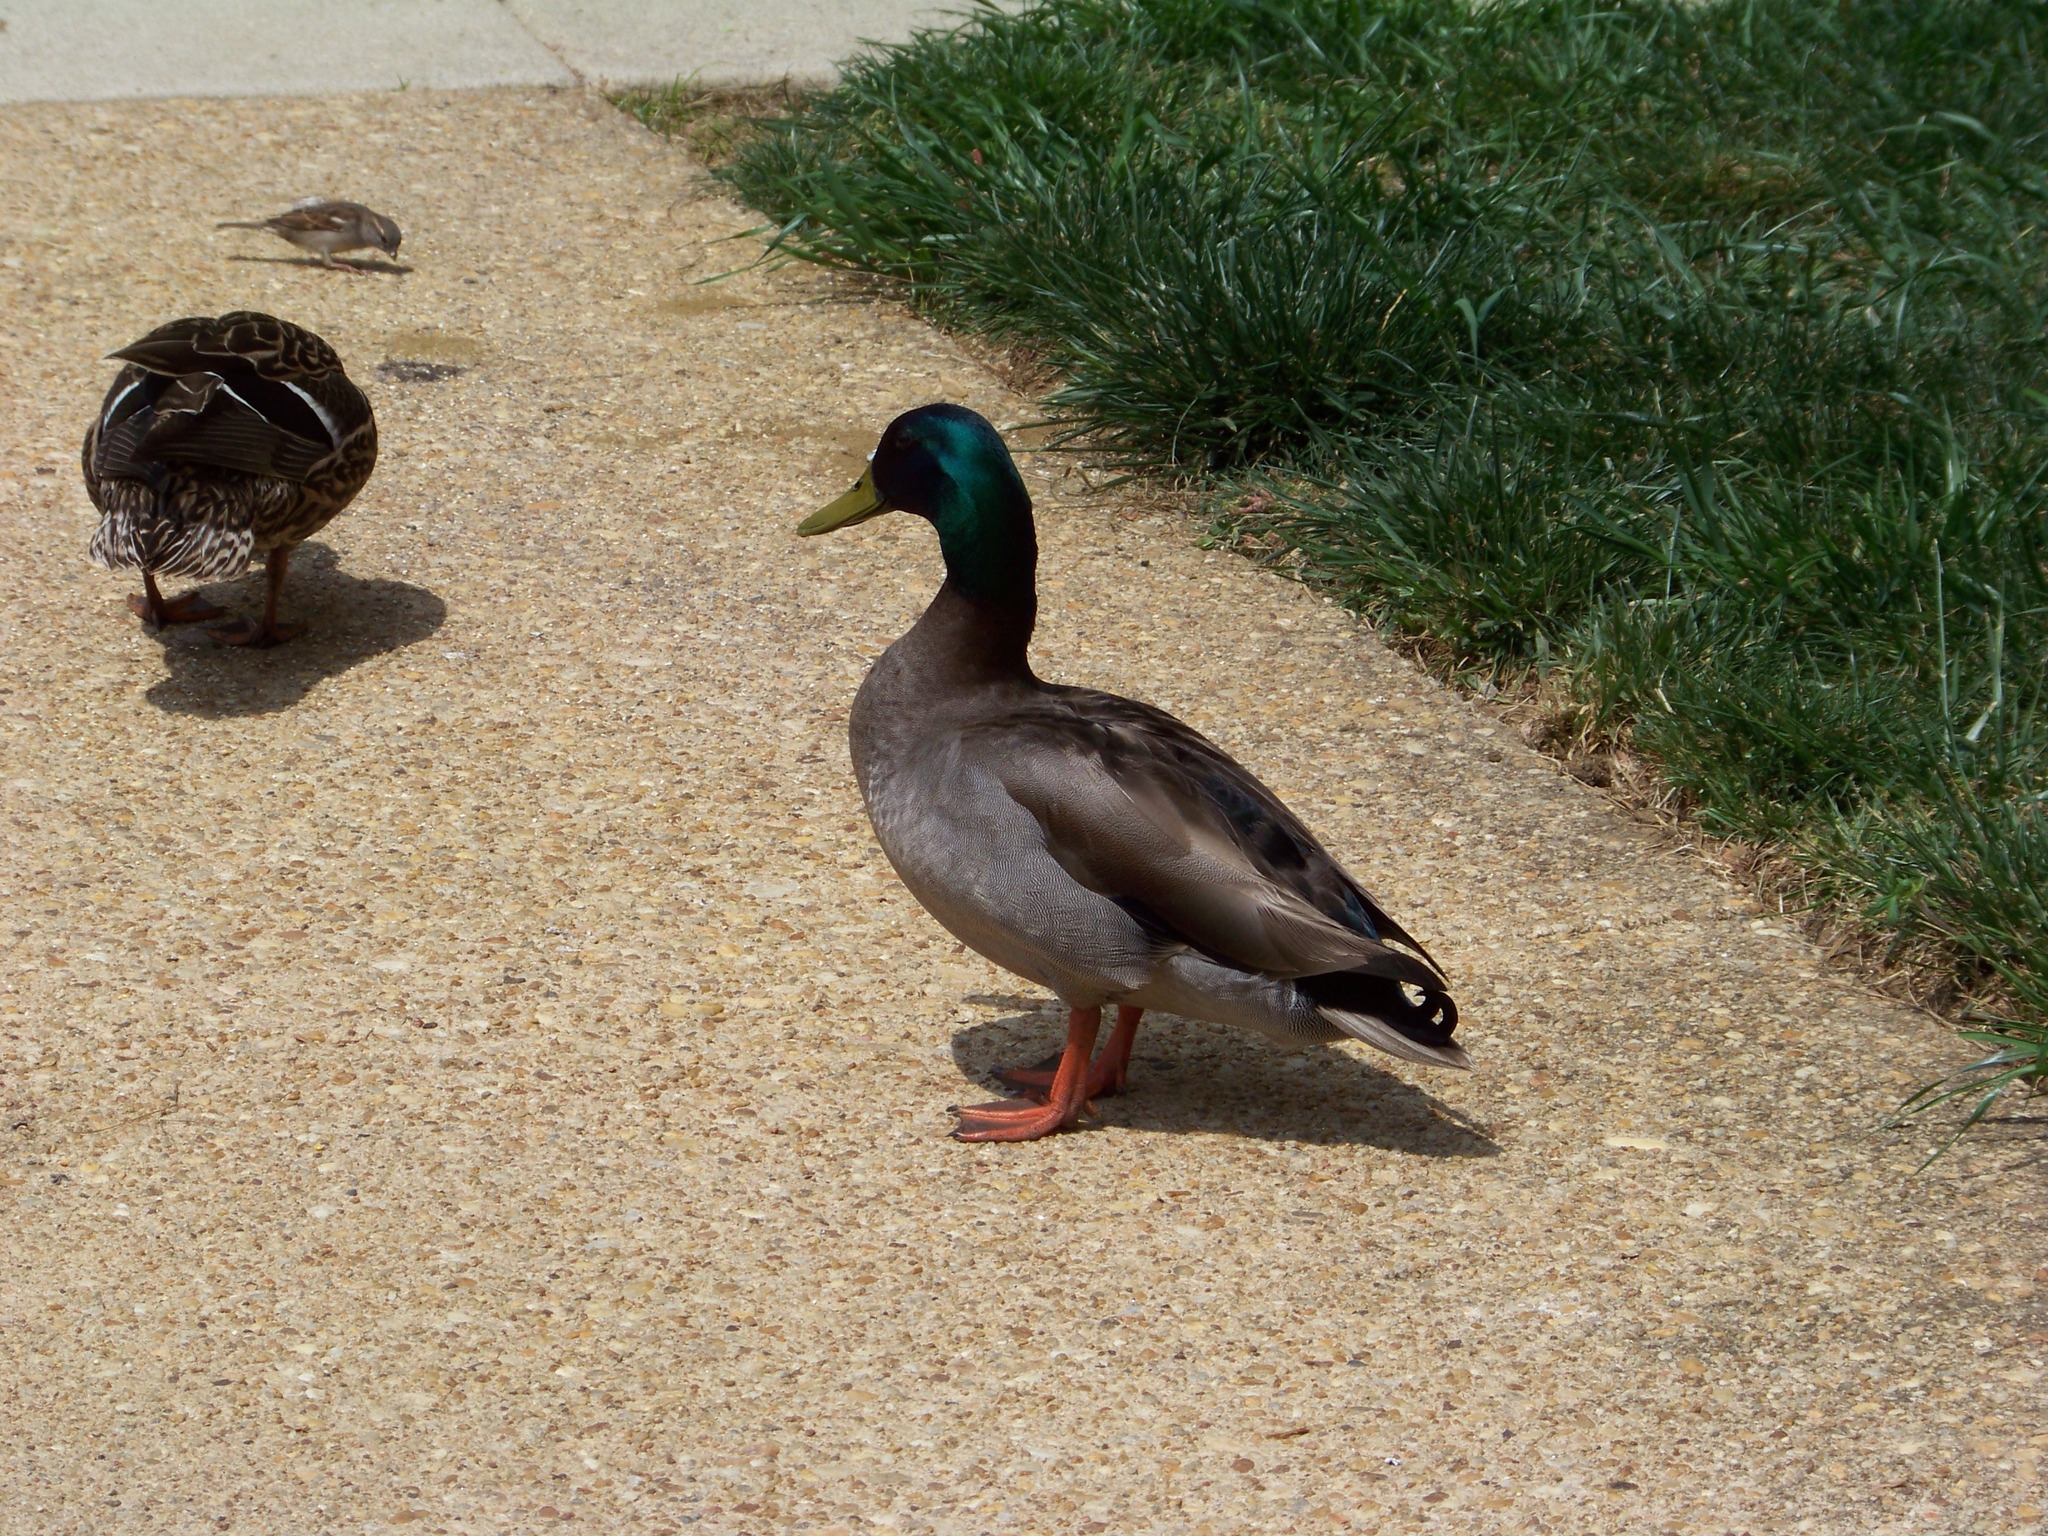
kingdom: Animalia
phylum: Chordata
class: Aves
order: Anseriformes
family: Anatidae
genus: Anas
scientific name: Anas platyrhynchos
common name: Mallard
